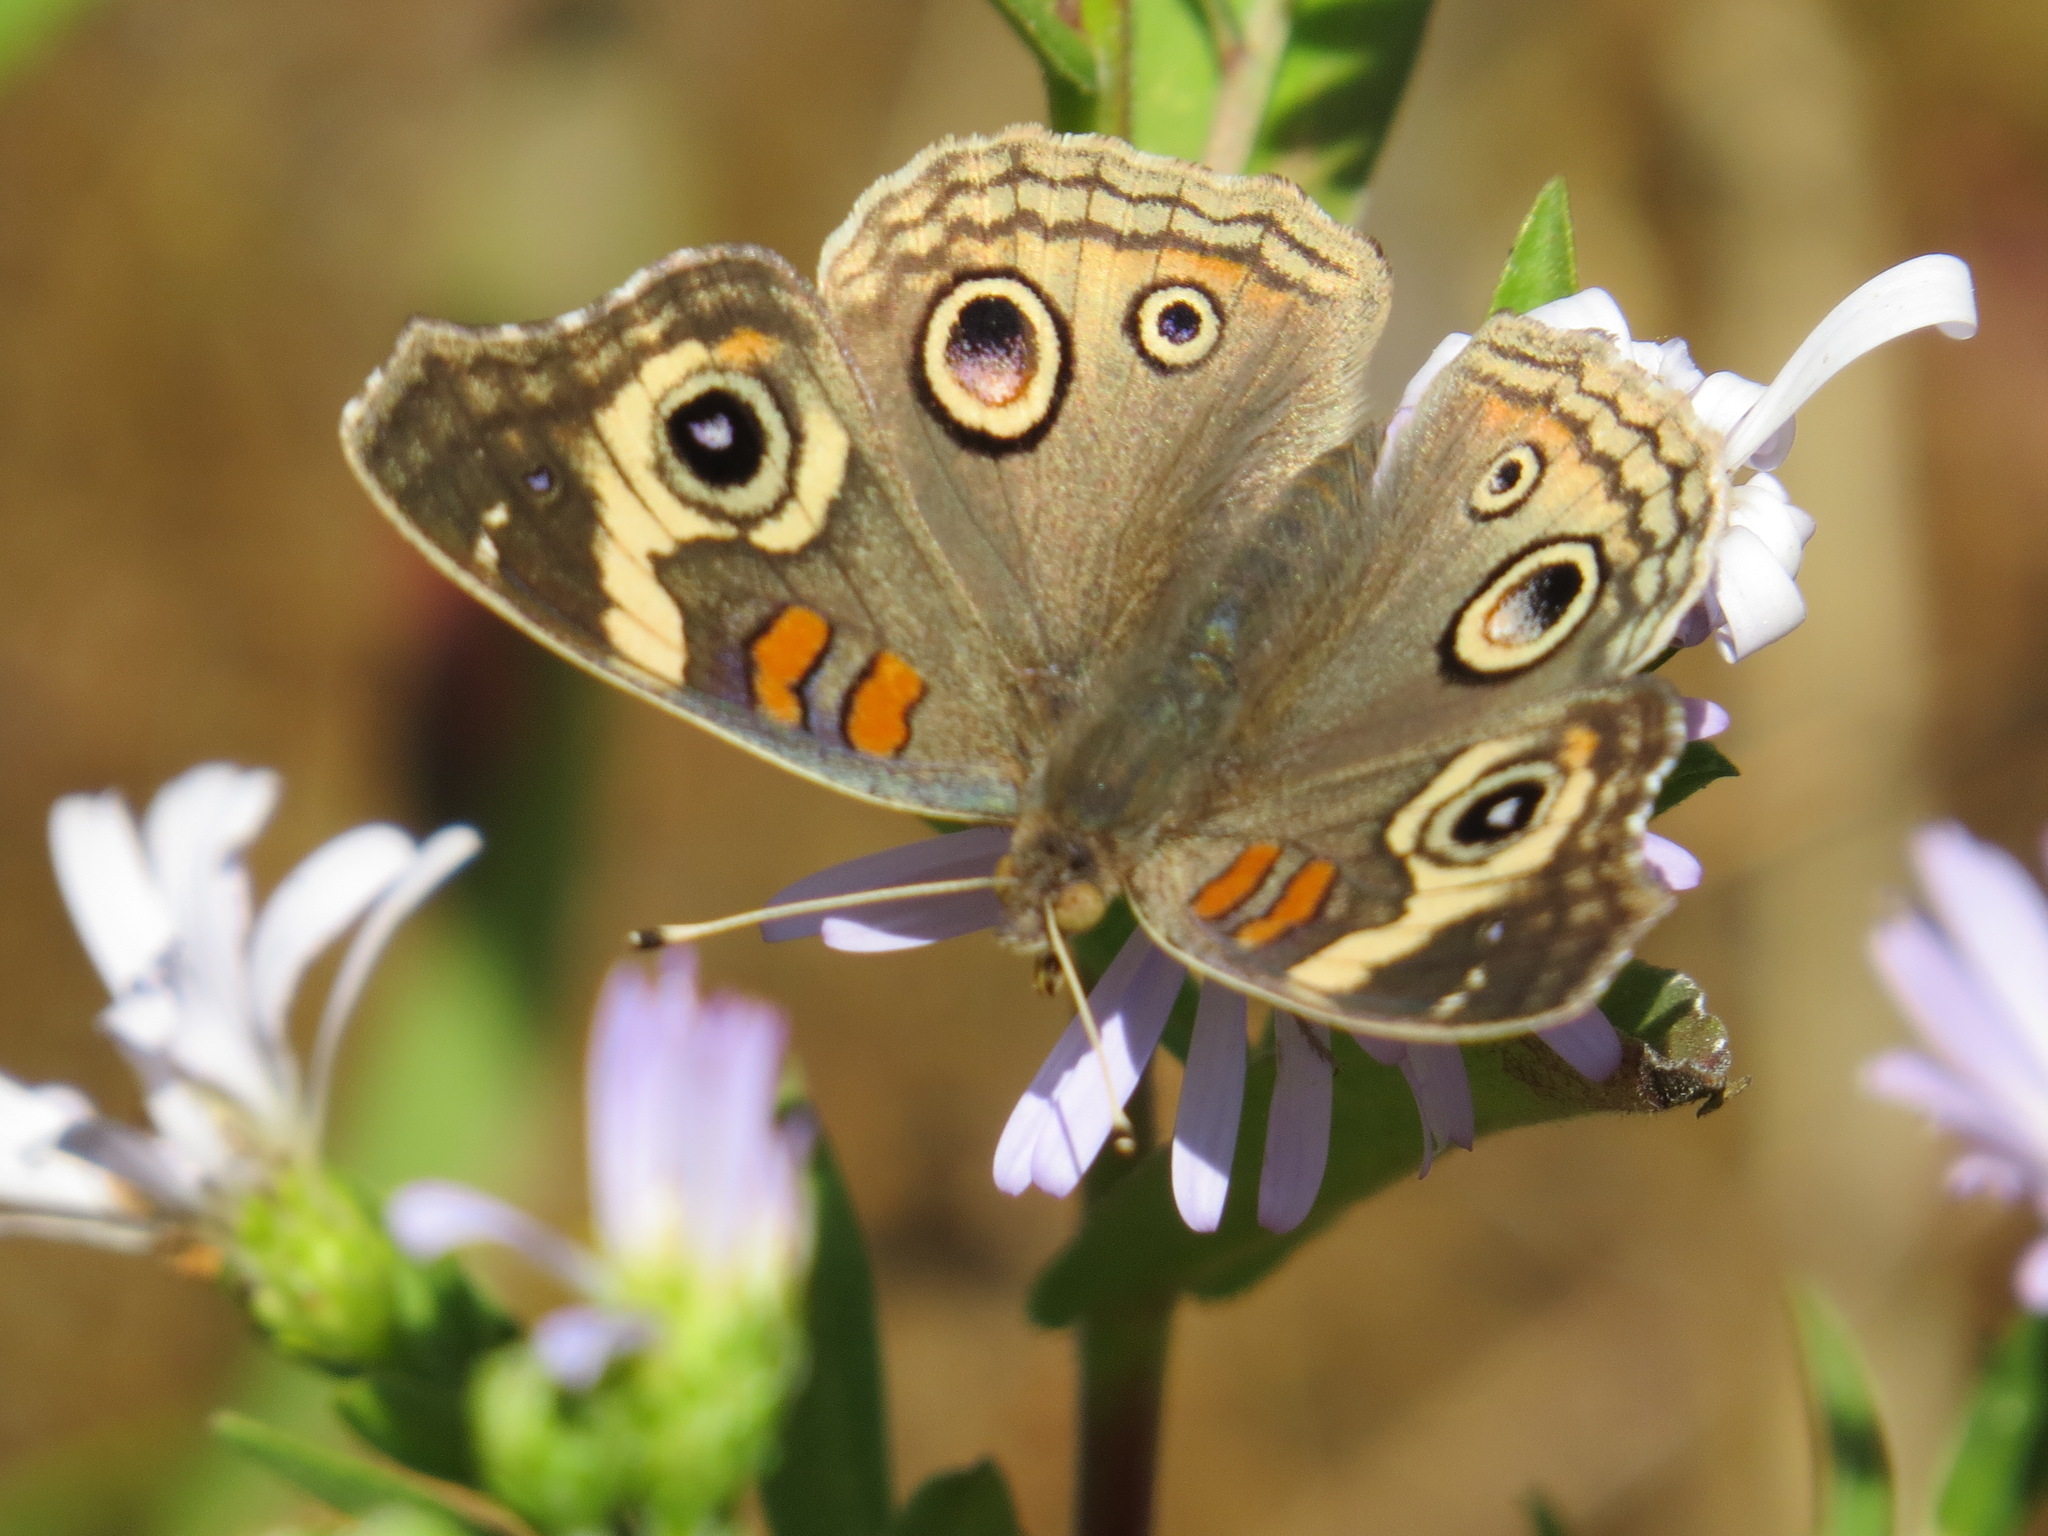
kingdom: Animalia
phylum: Arthropoda
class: Insecta
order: Lepidoptera
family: Nymphalidae
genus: Junonia
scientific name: Junonia grisea
